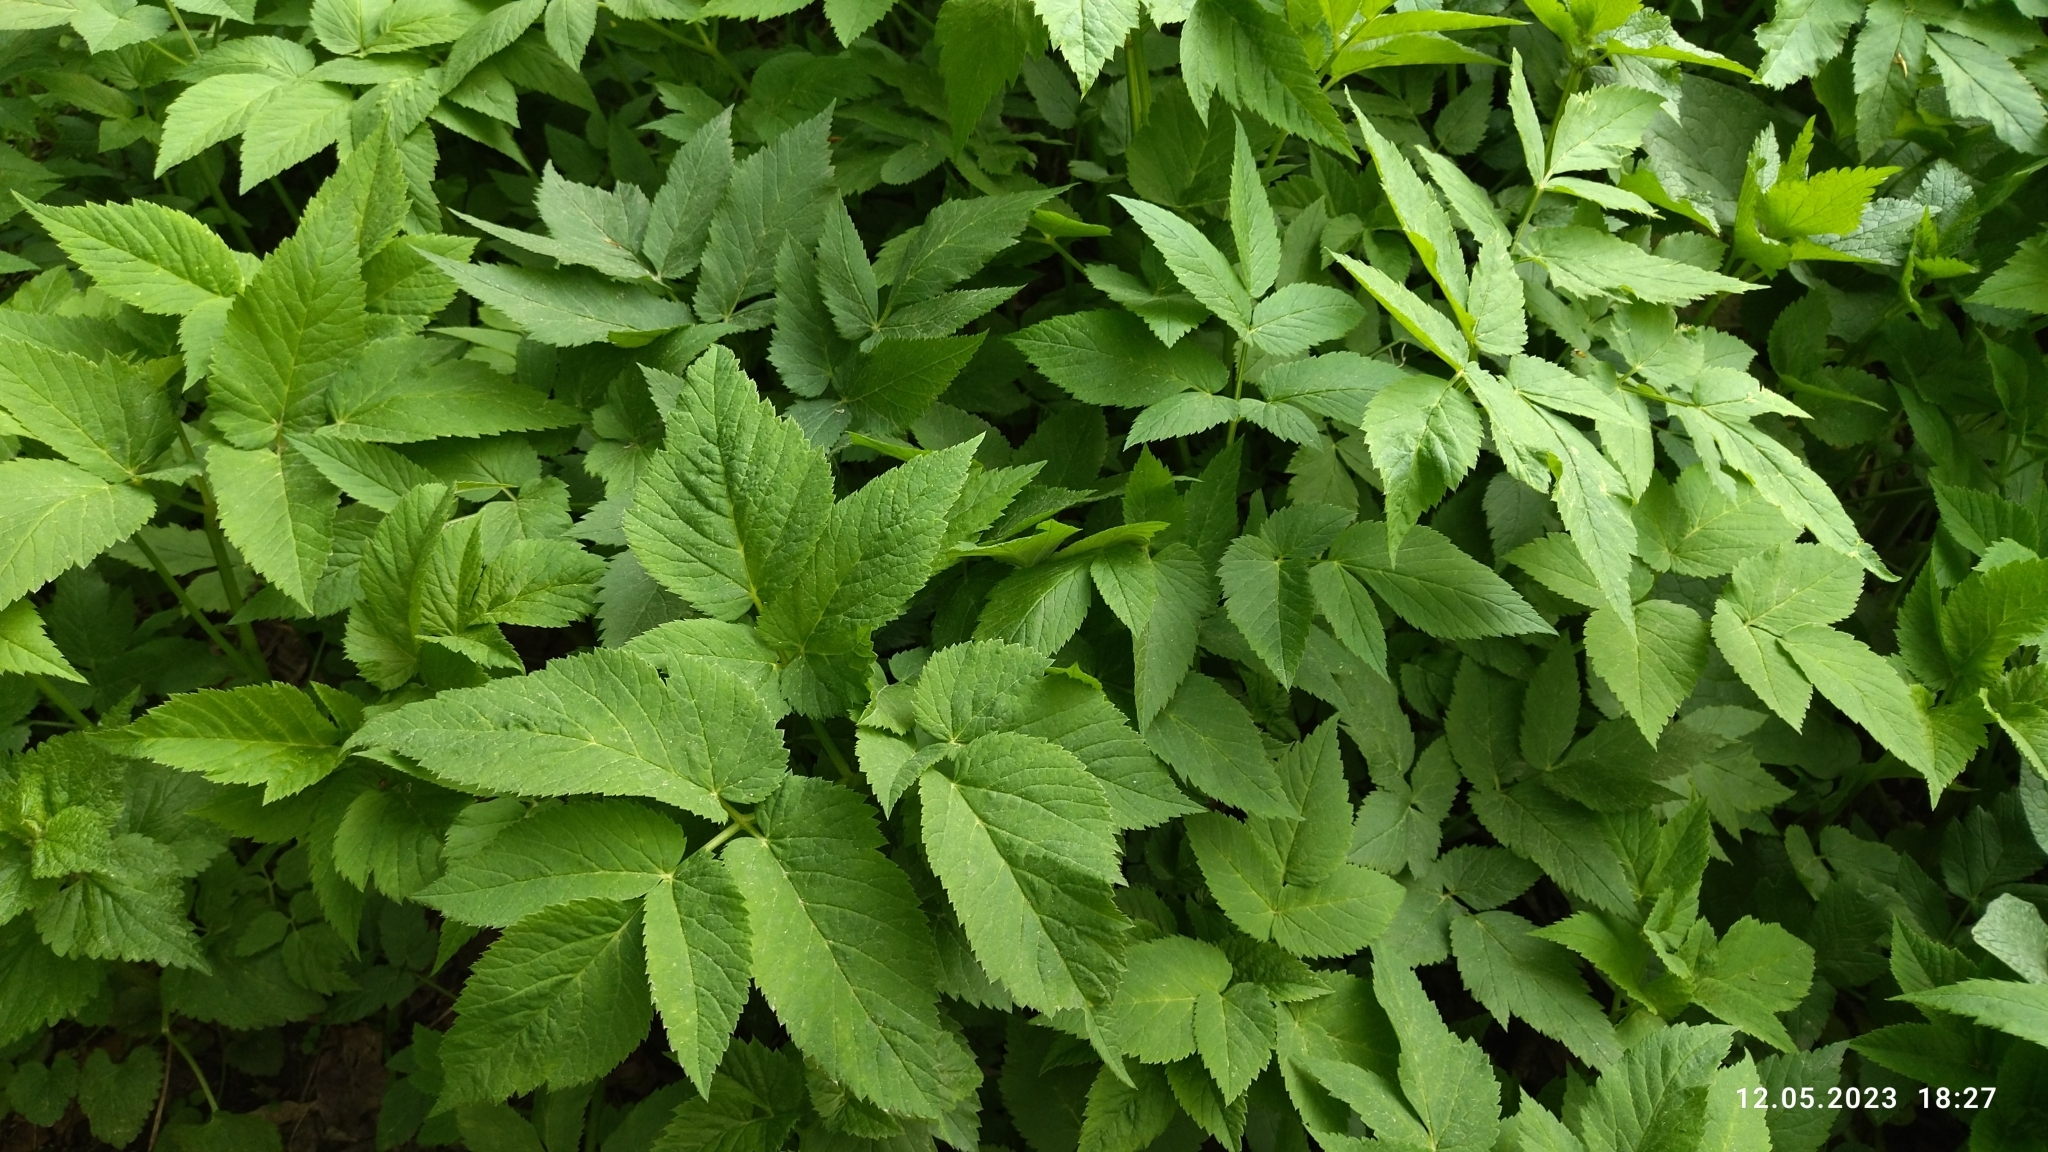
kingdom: Plantae
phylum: Tracheophyta
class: Magnoliopsida
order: Apiales
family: Apiaceae
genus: Aegopodium
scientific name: Aegopodium podagraria
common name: Ground-elder
